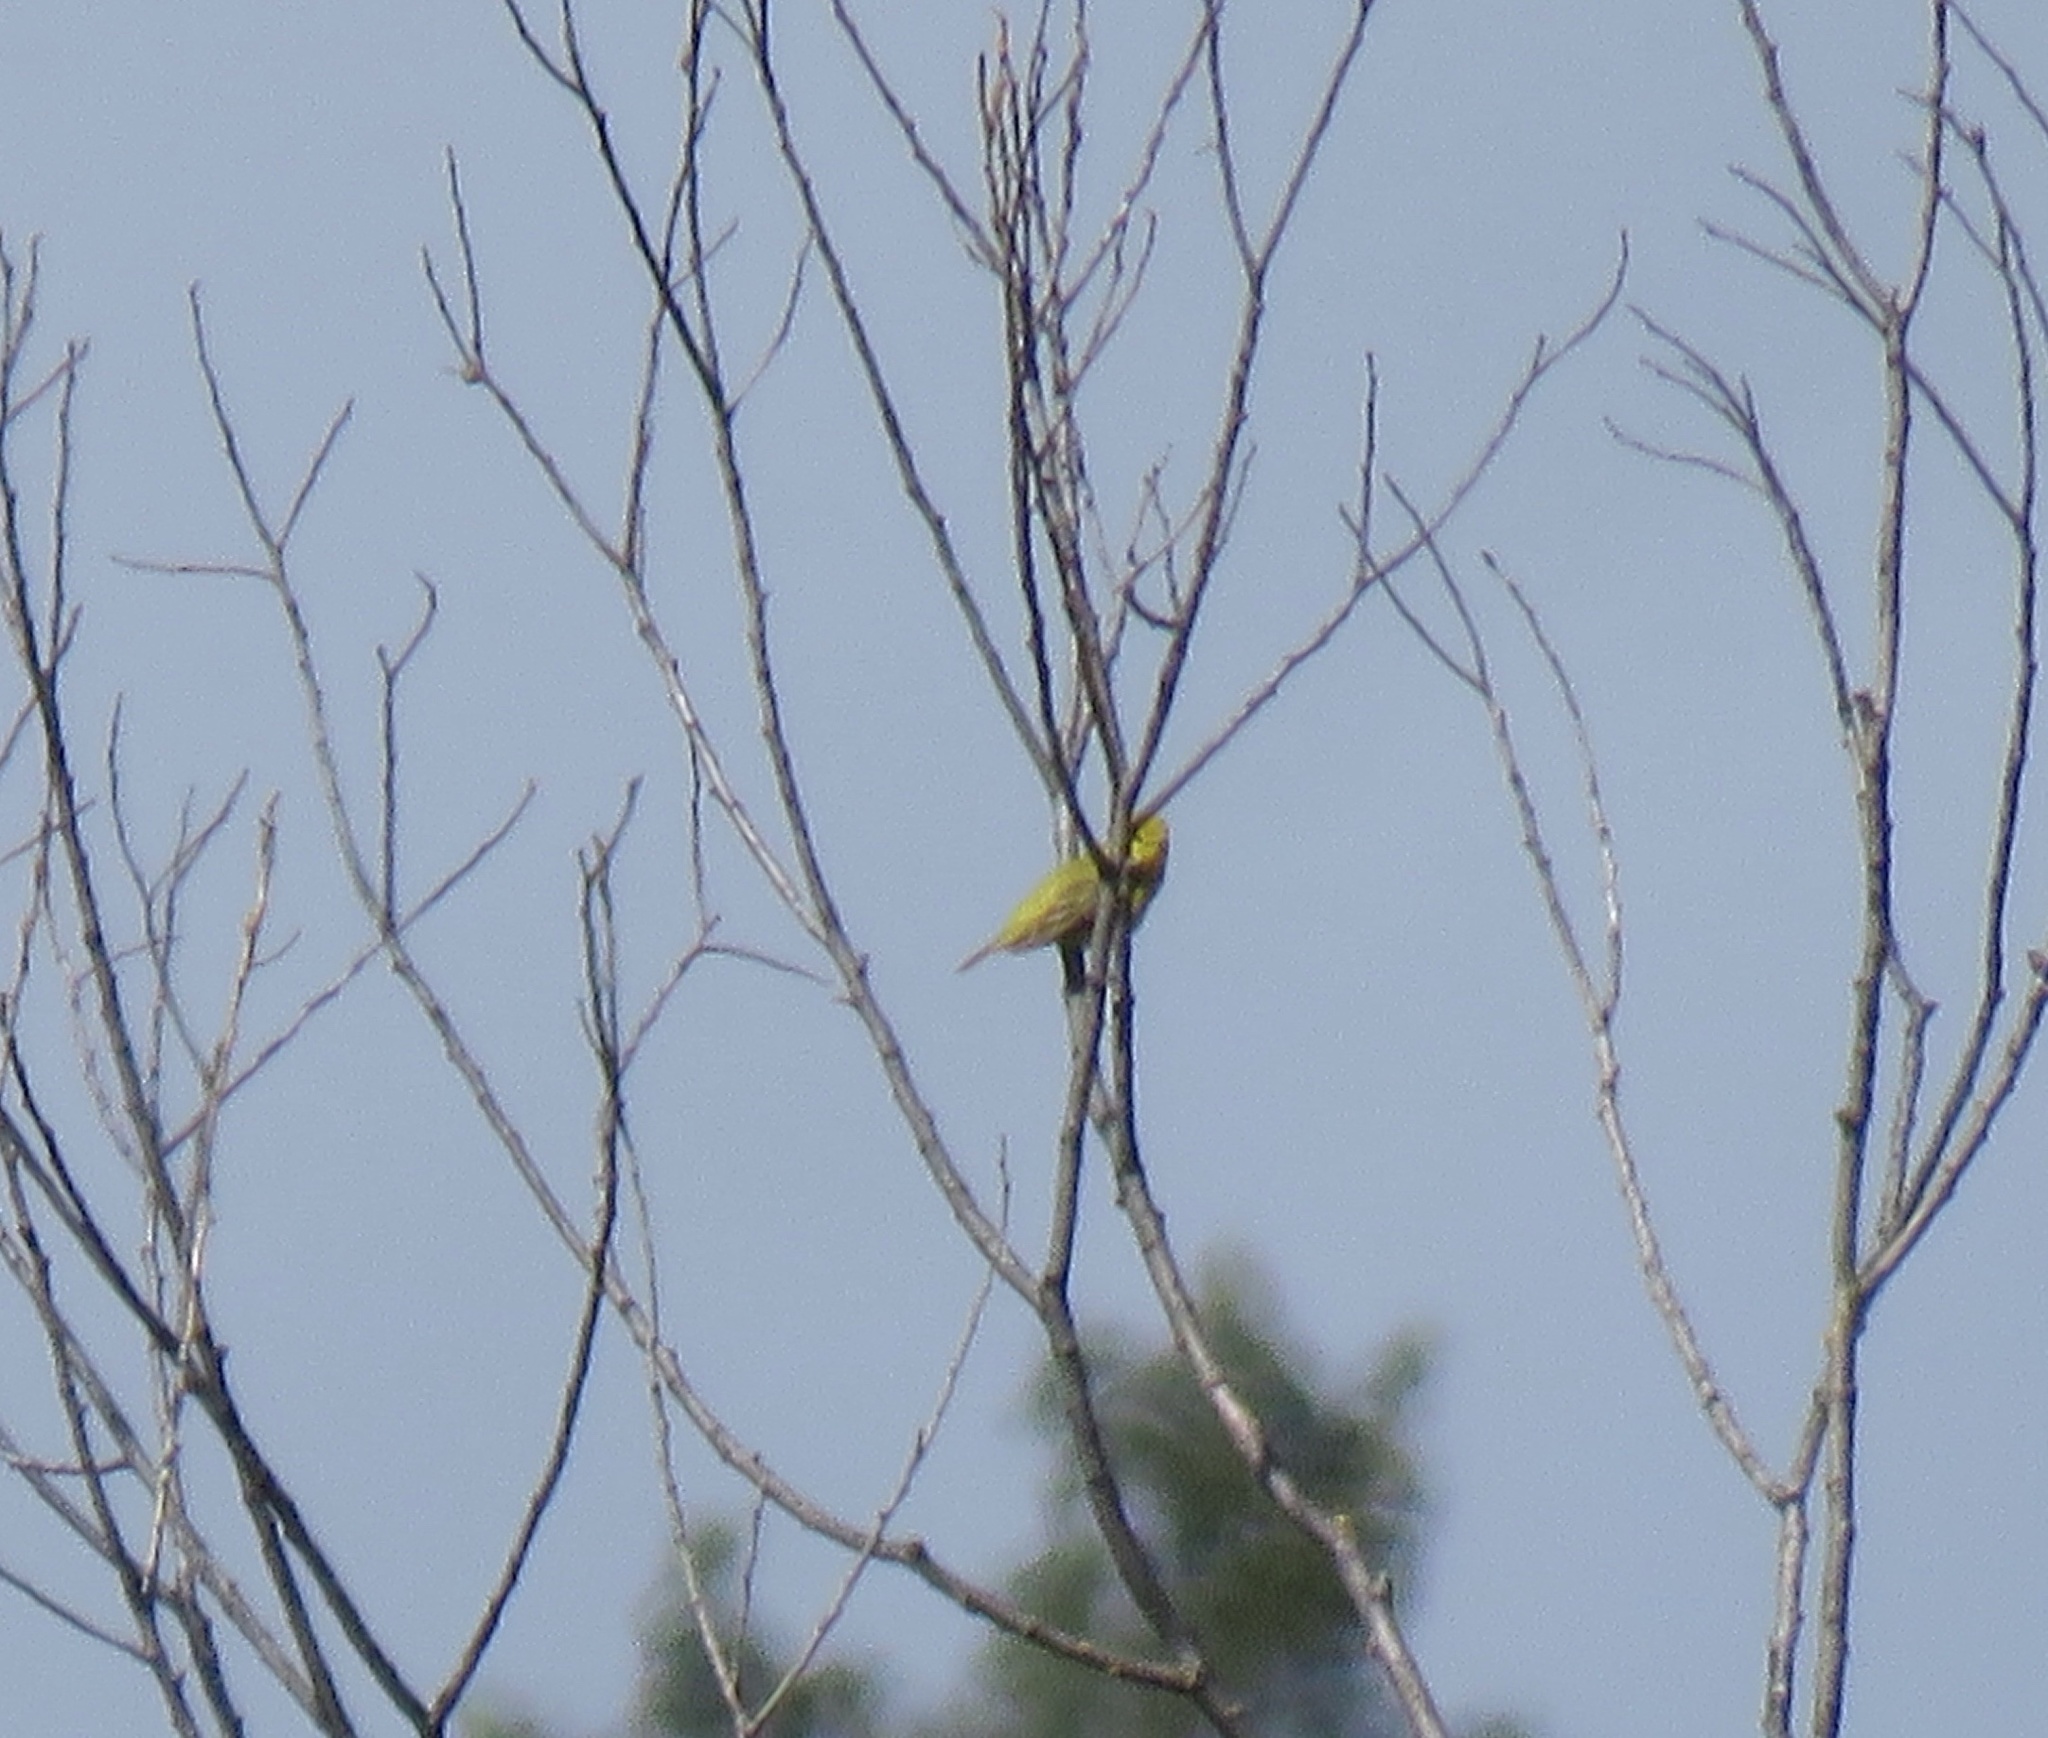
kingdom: Animalia
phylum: Chordata
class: Aves
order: Passeriformes
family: Parulidae
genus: Setophaga
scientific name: Setophaga petechia
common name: Yellow warbler
